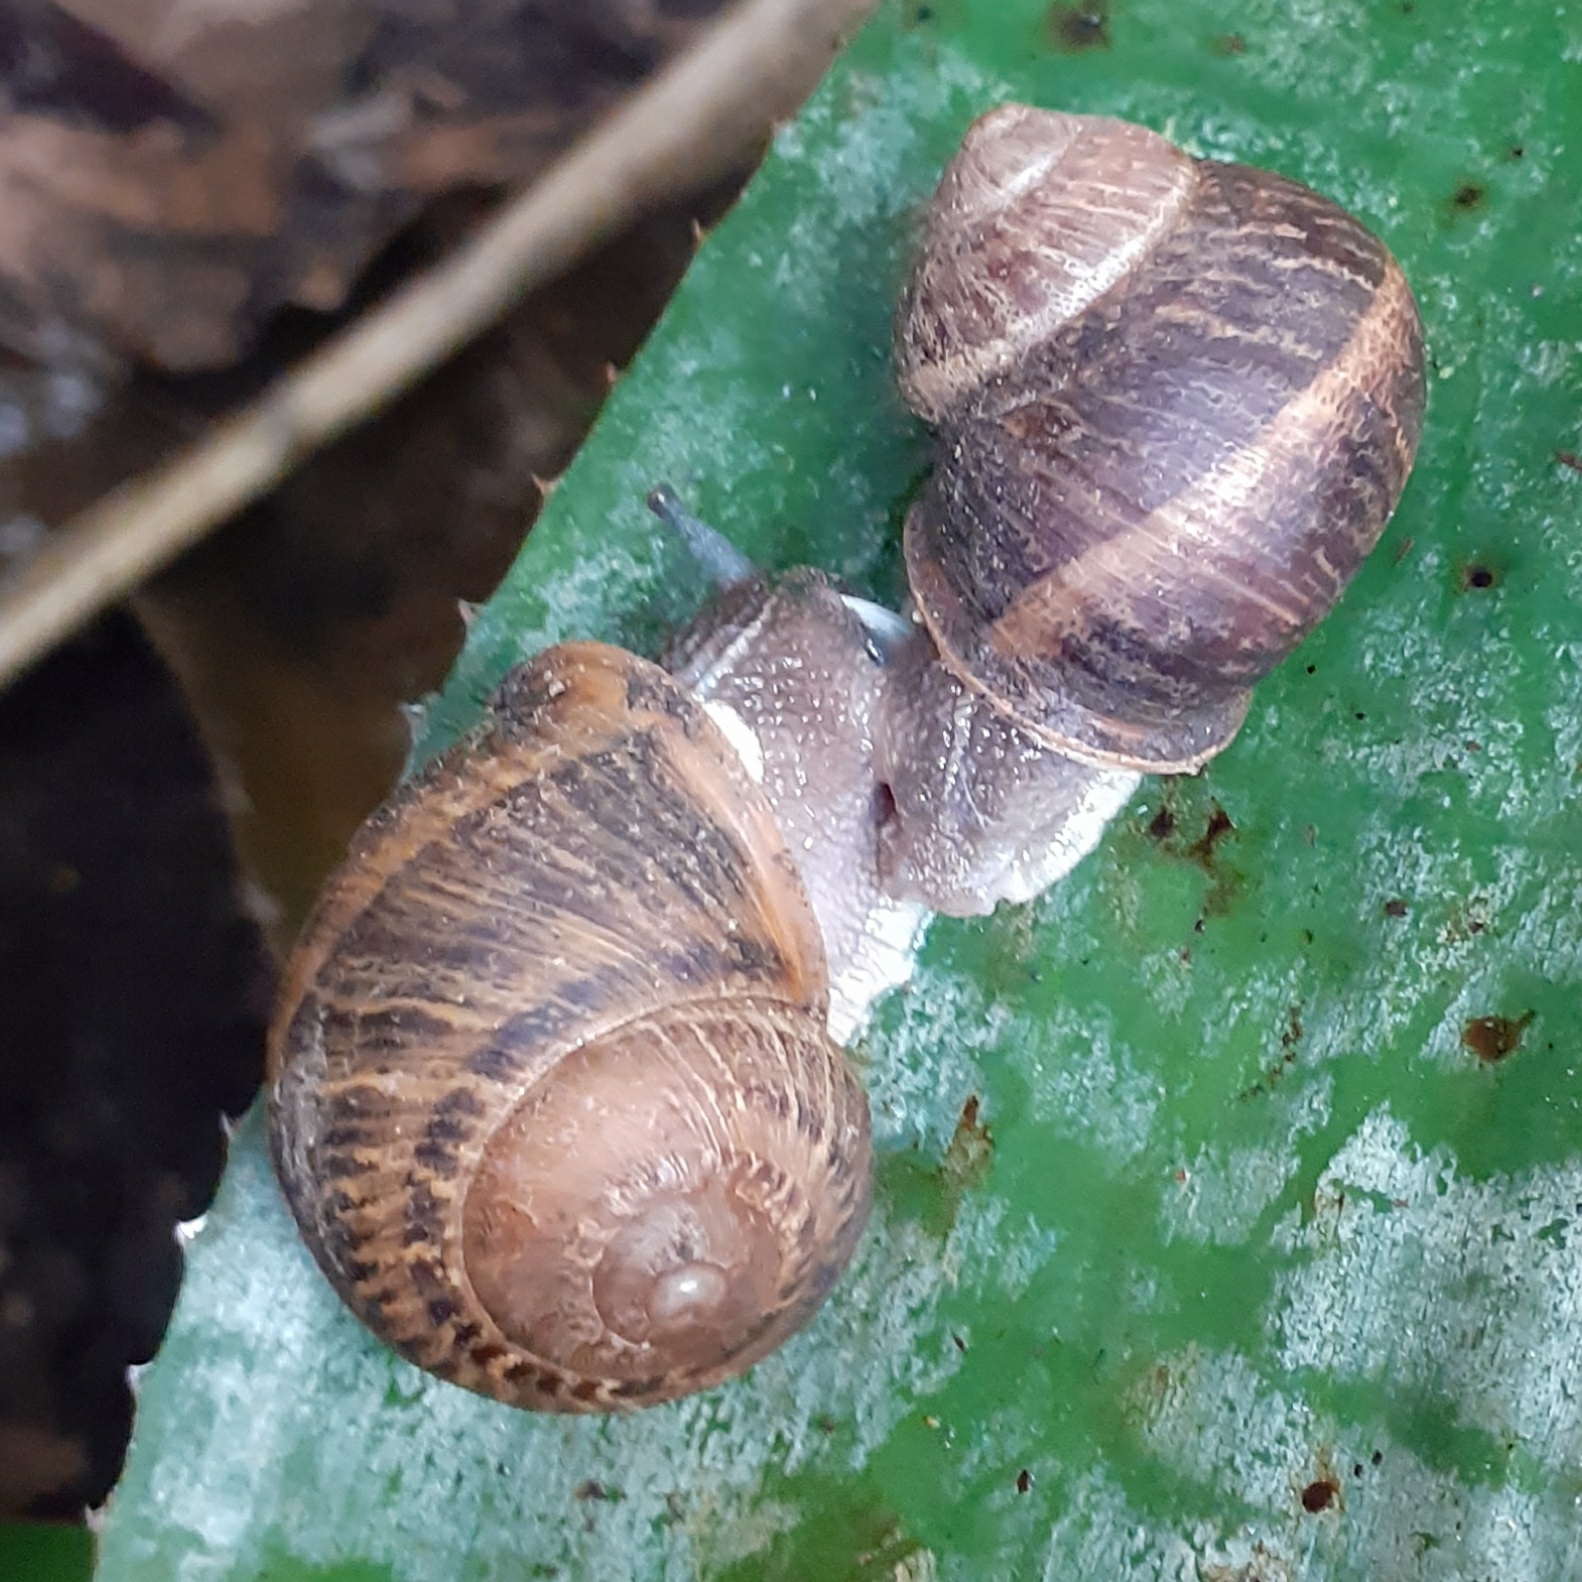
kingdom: Animalia
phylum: Mollusca
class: Gastropoda
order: Stylommatophora
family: Helicidae
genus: Cornu
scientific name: Cornu aspersum
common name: Brown garden snail
